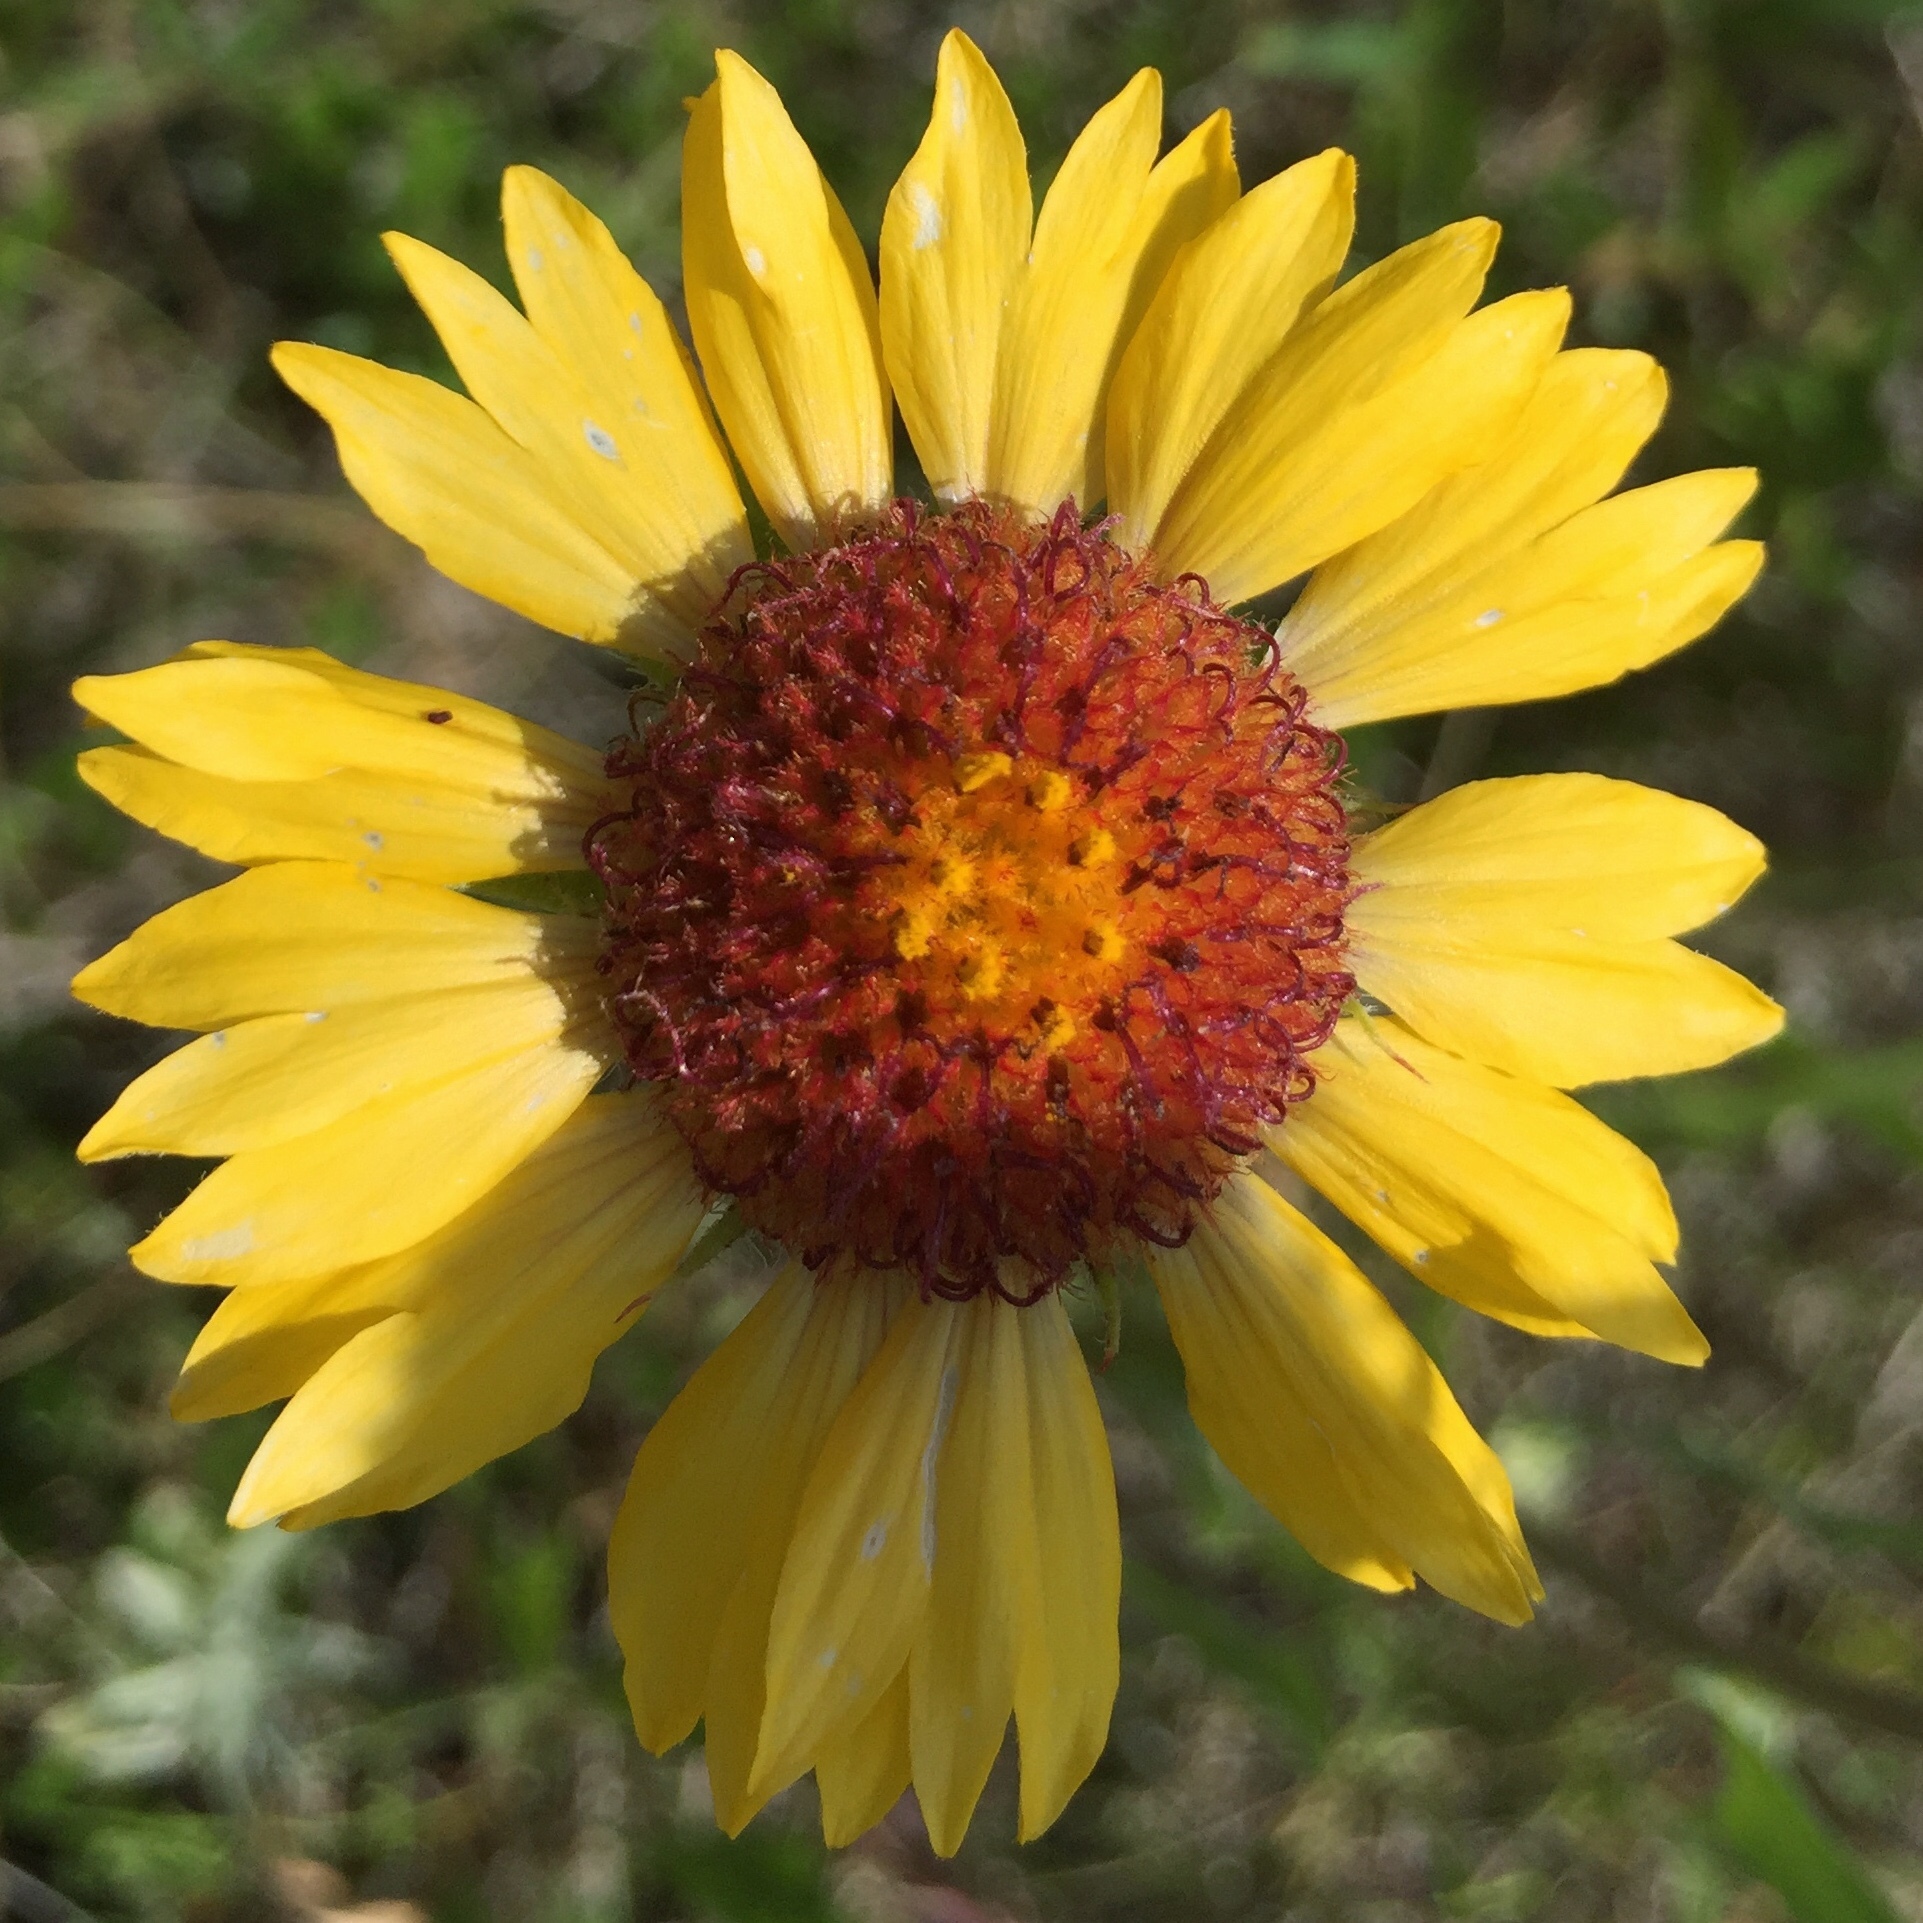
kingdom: Plantae
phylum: Tracheophyta
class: Magnoliopsida
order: Asterales
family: Asteraceae
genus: Gaillardia
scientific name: Gaillardia aristata
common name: Blanket-flower
